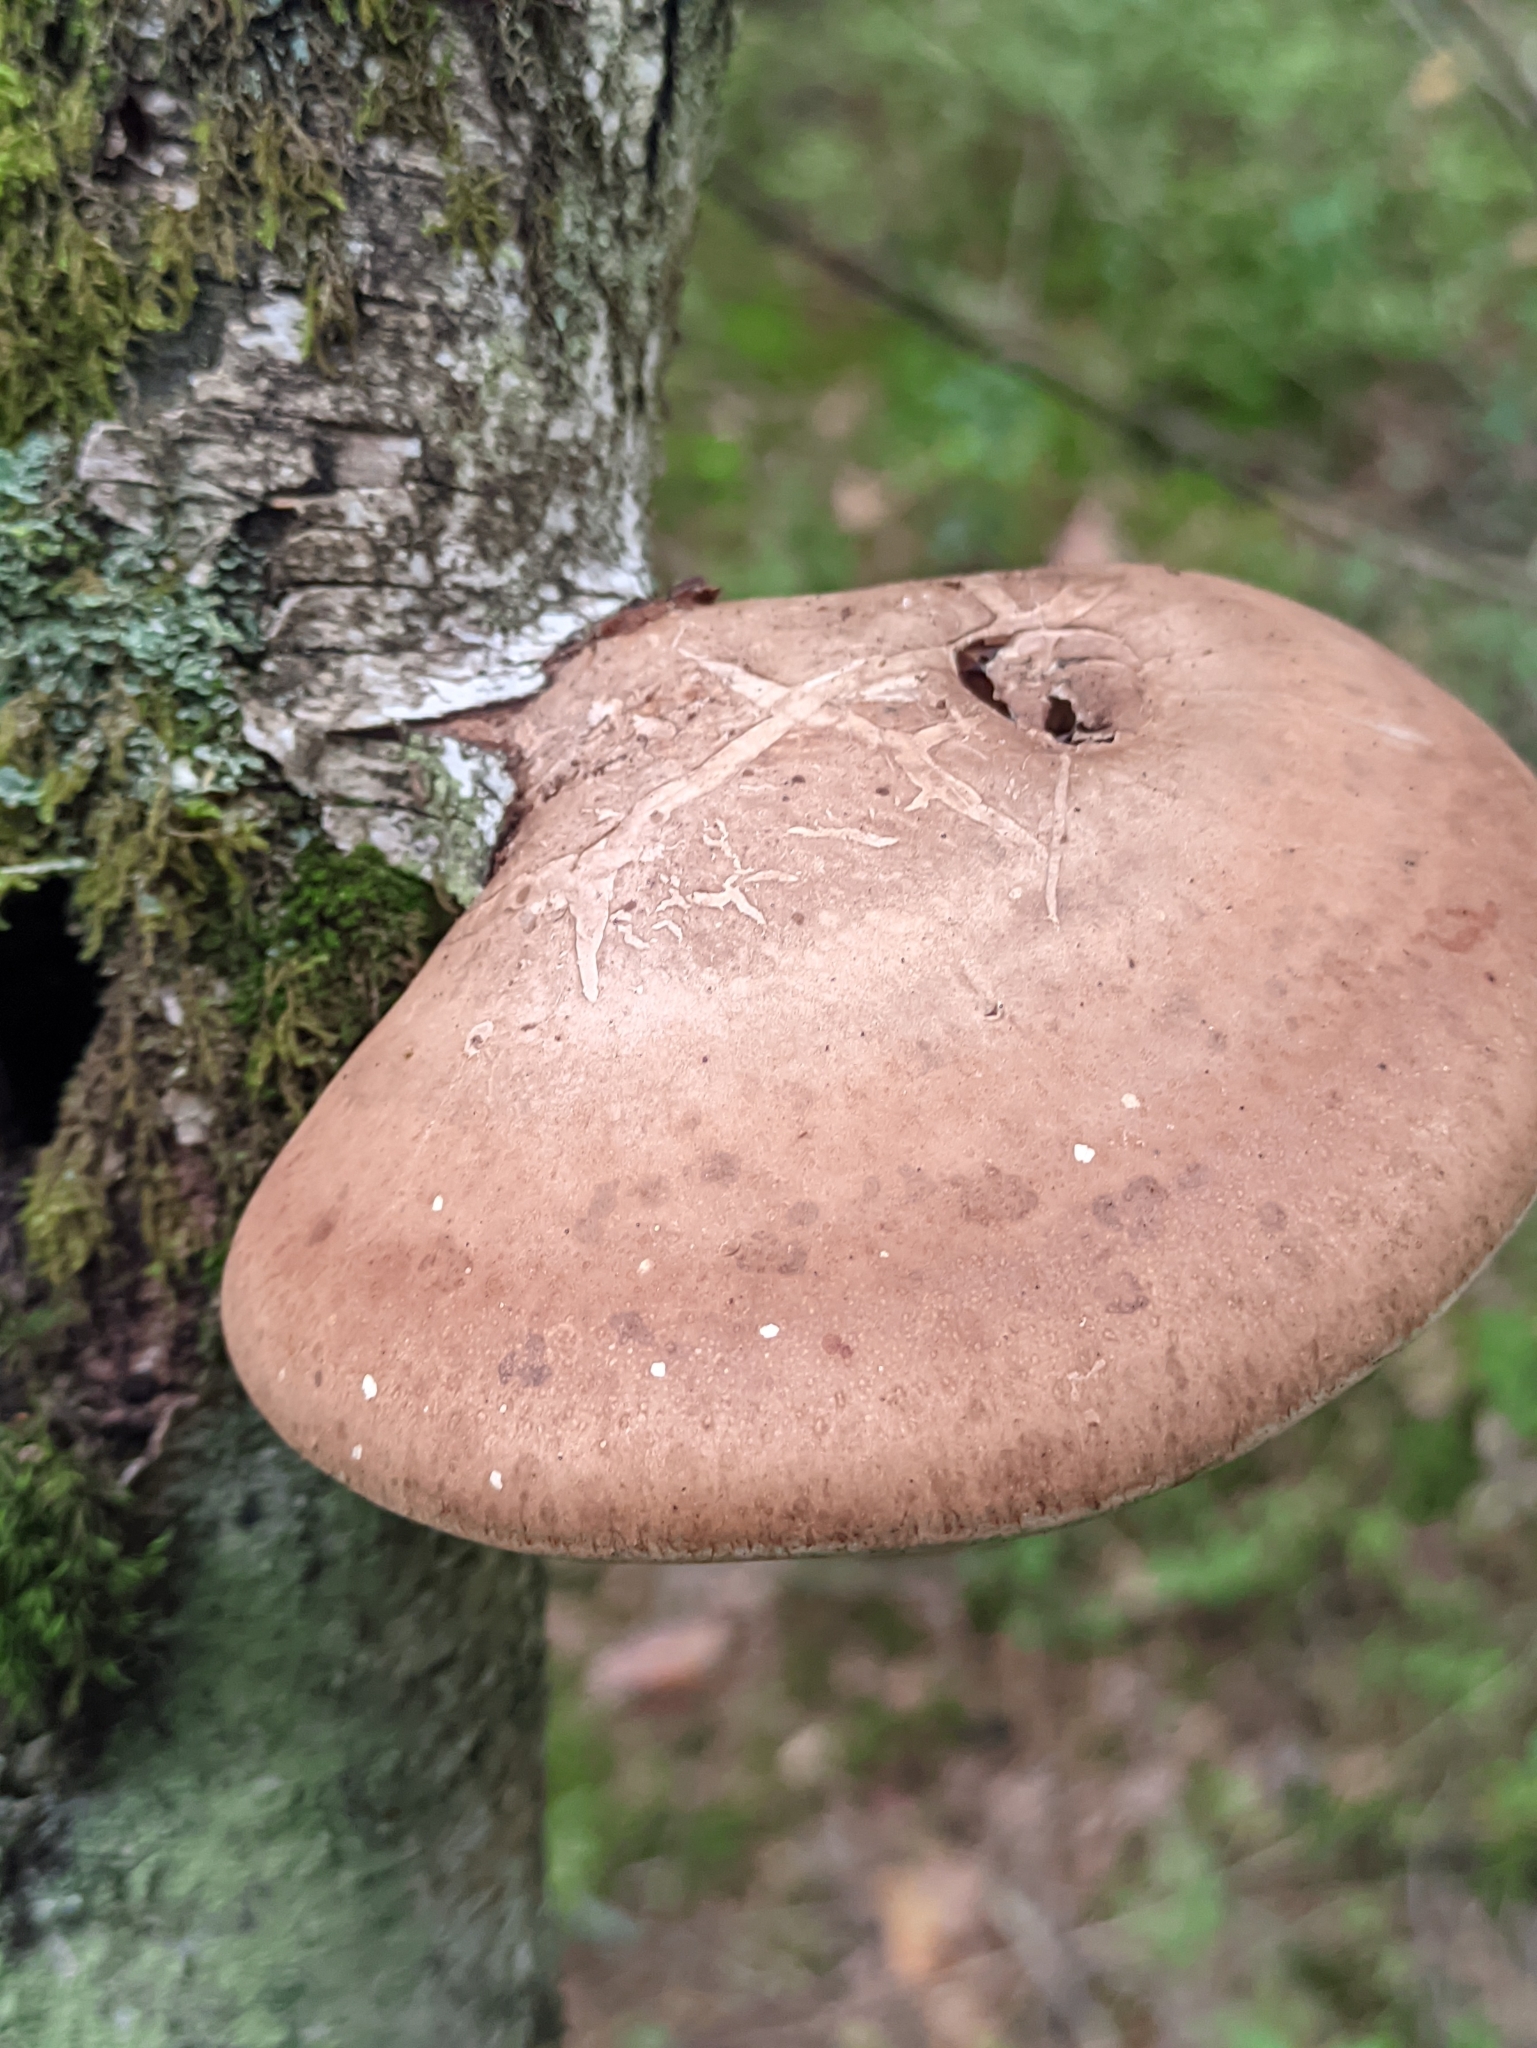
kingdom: Fungi
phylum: Basidiomycota
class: Agaricomycetes
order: Polyporales
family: Fomitopsidaceae
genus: Fomitopsis
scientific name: Fomitopsis betulina
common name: Birch polypore
